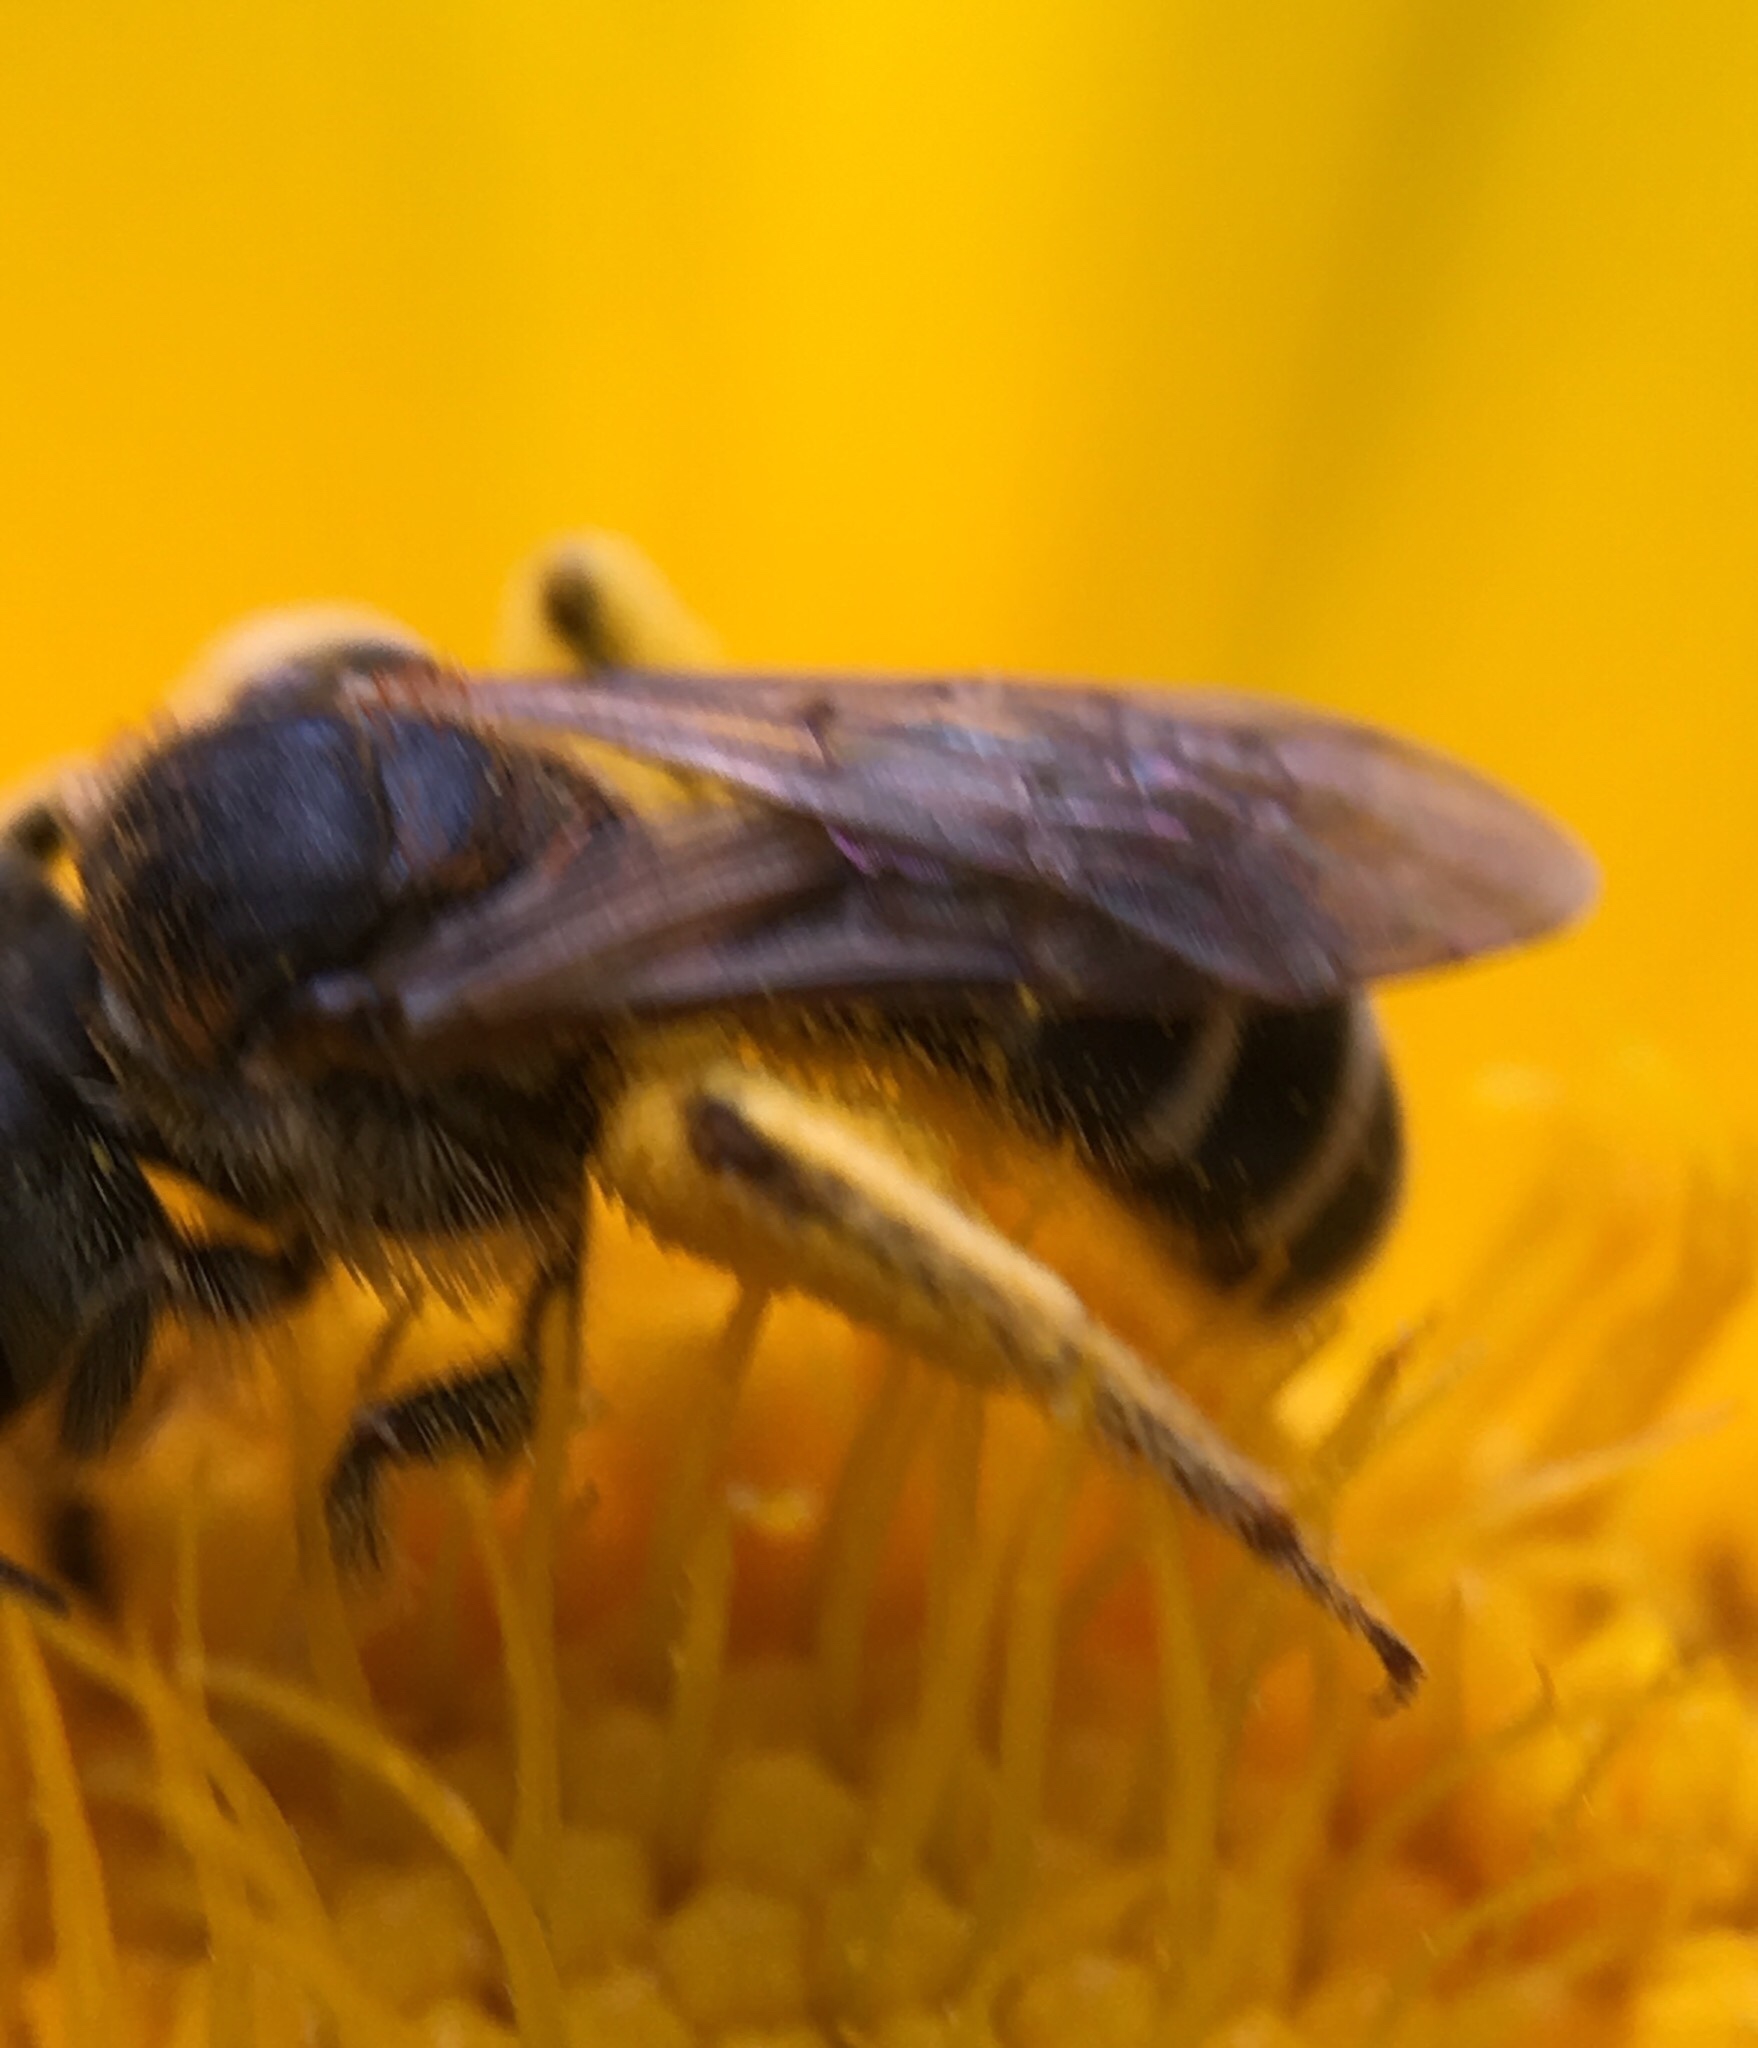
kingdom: Animalia
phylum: Arthropoda
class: Insecta
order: Hymenoptera
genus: Odontalictus
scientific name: Odontalictus
